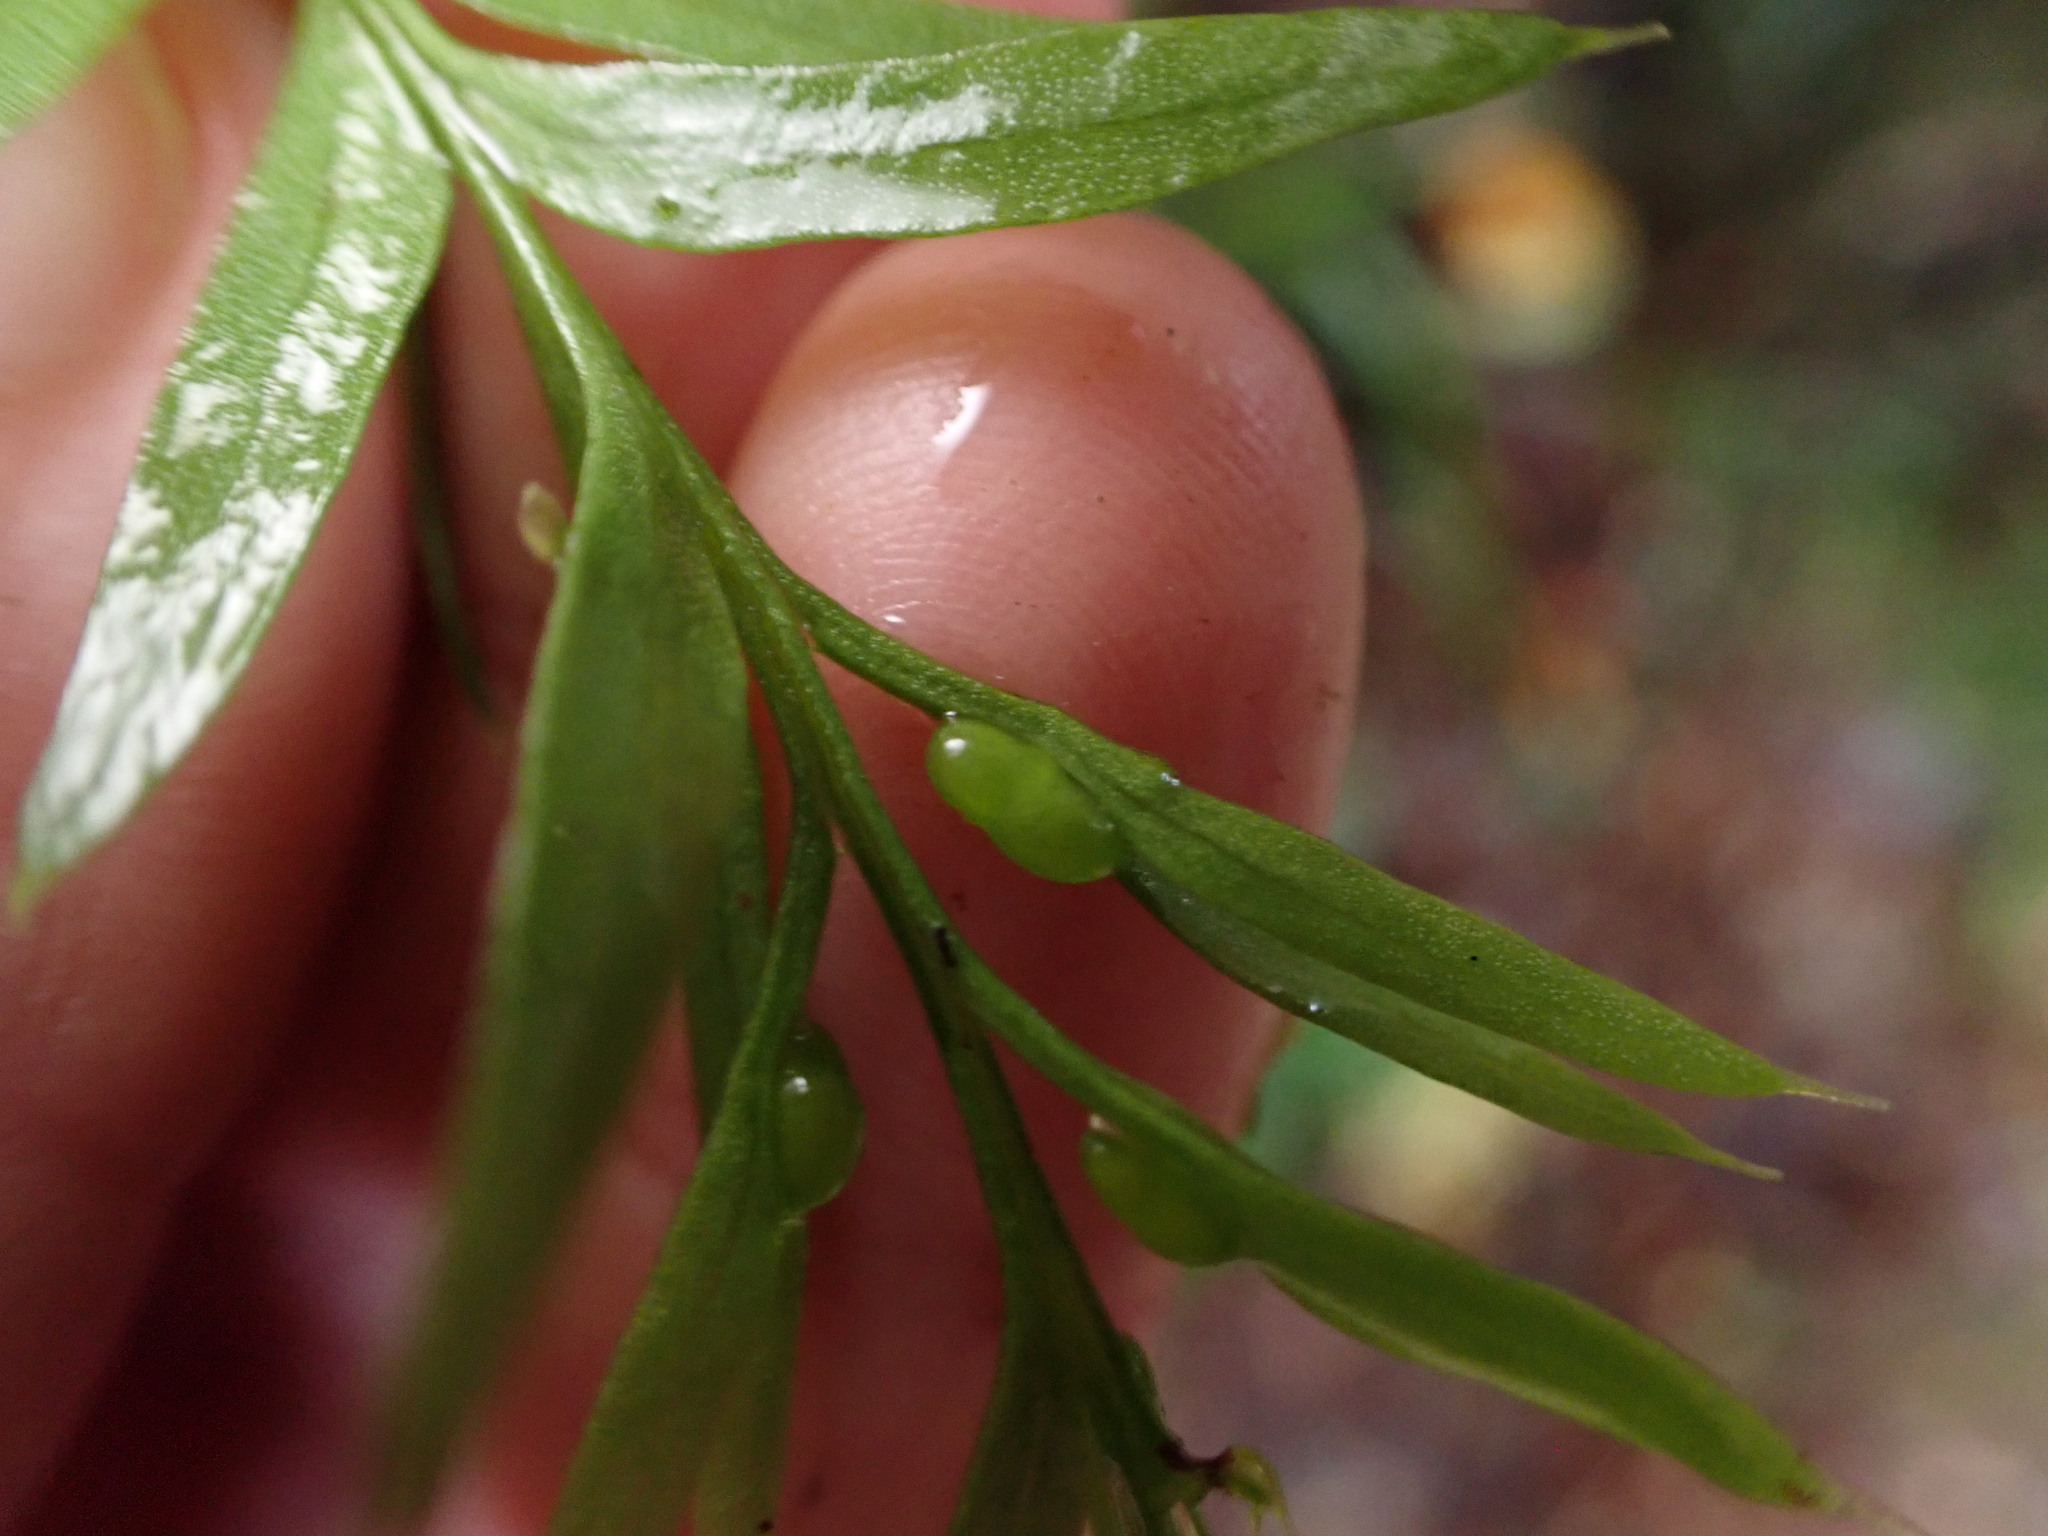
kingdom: Plantae
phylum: Tracheophyta
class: Polypodiopsida
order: Psilotales
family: Psilotaceae
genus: Tmesipteris
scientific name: Tmesipteris elongata
